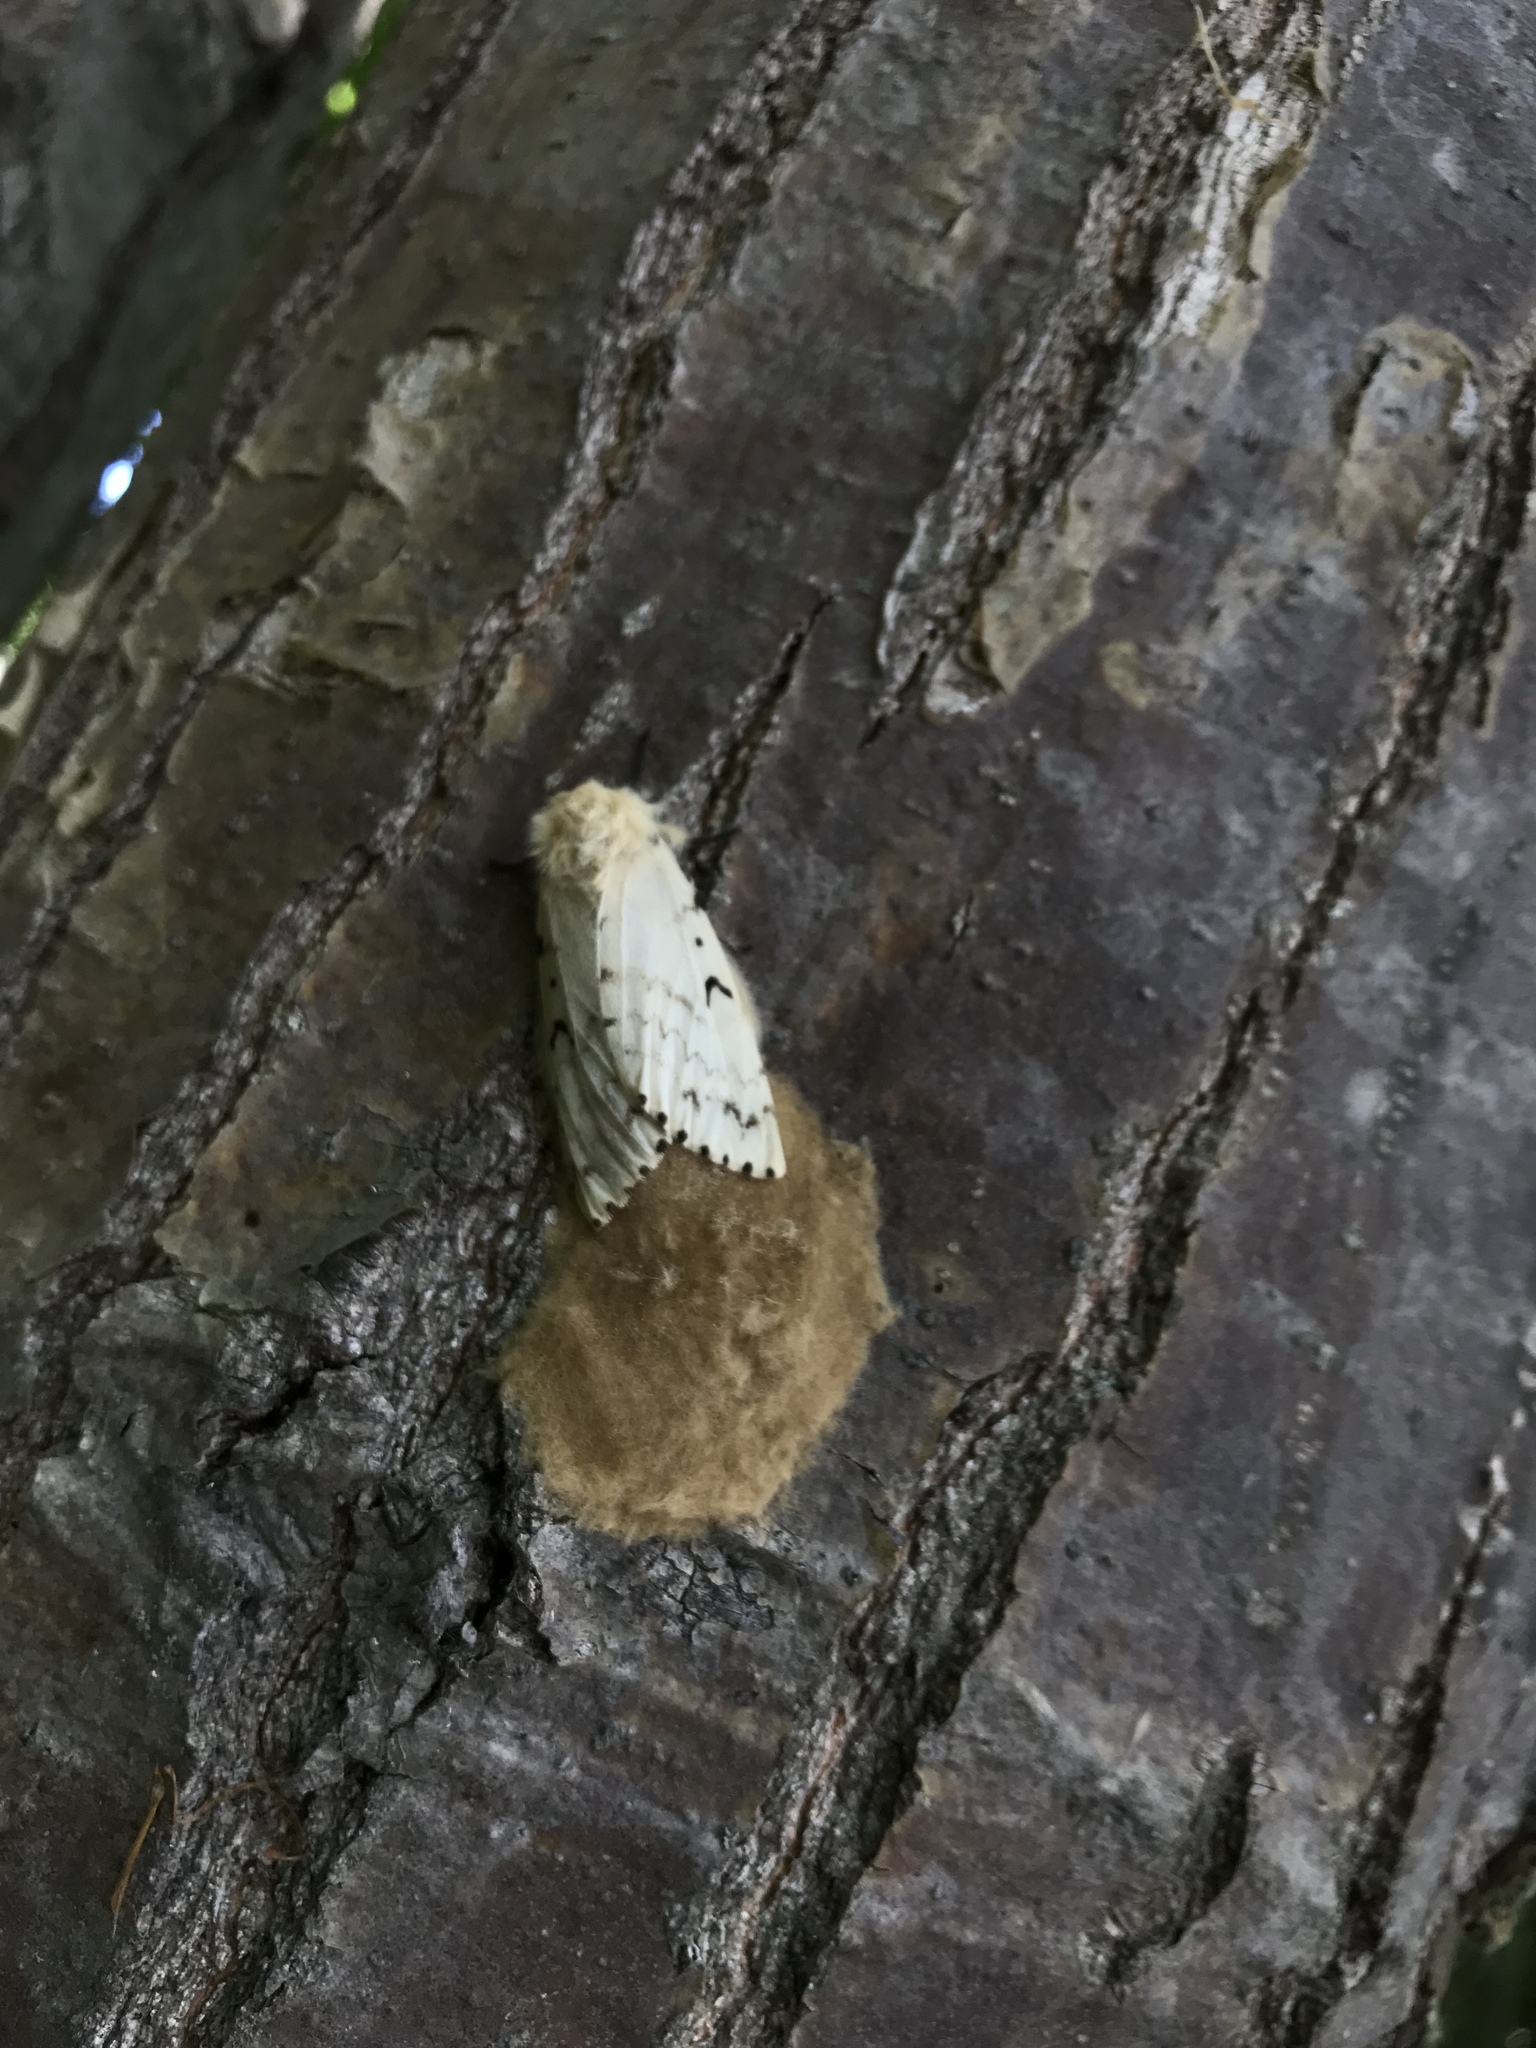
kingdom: Animalia
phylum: Arthropoda
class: Insecta
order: Lepidoptera
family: Erebidae
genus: Lymantria
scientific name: Lymantria dispar
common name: Gypsy moth
